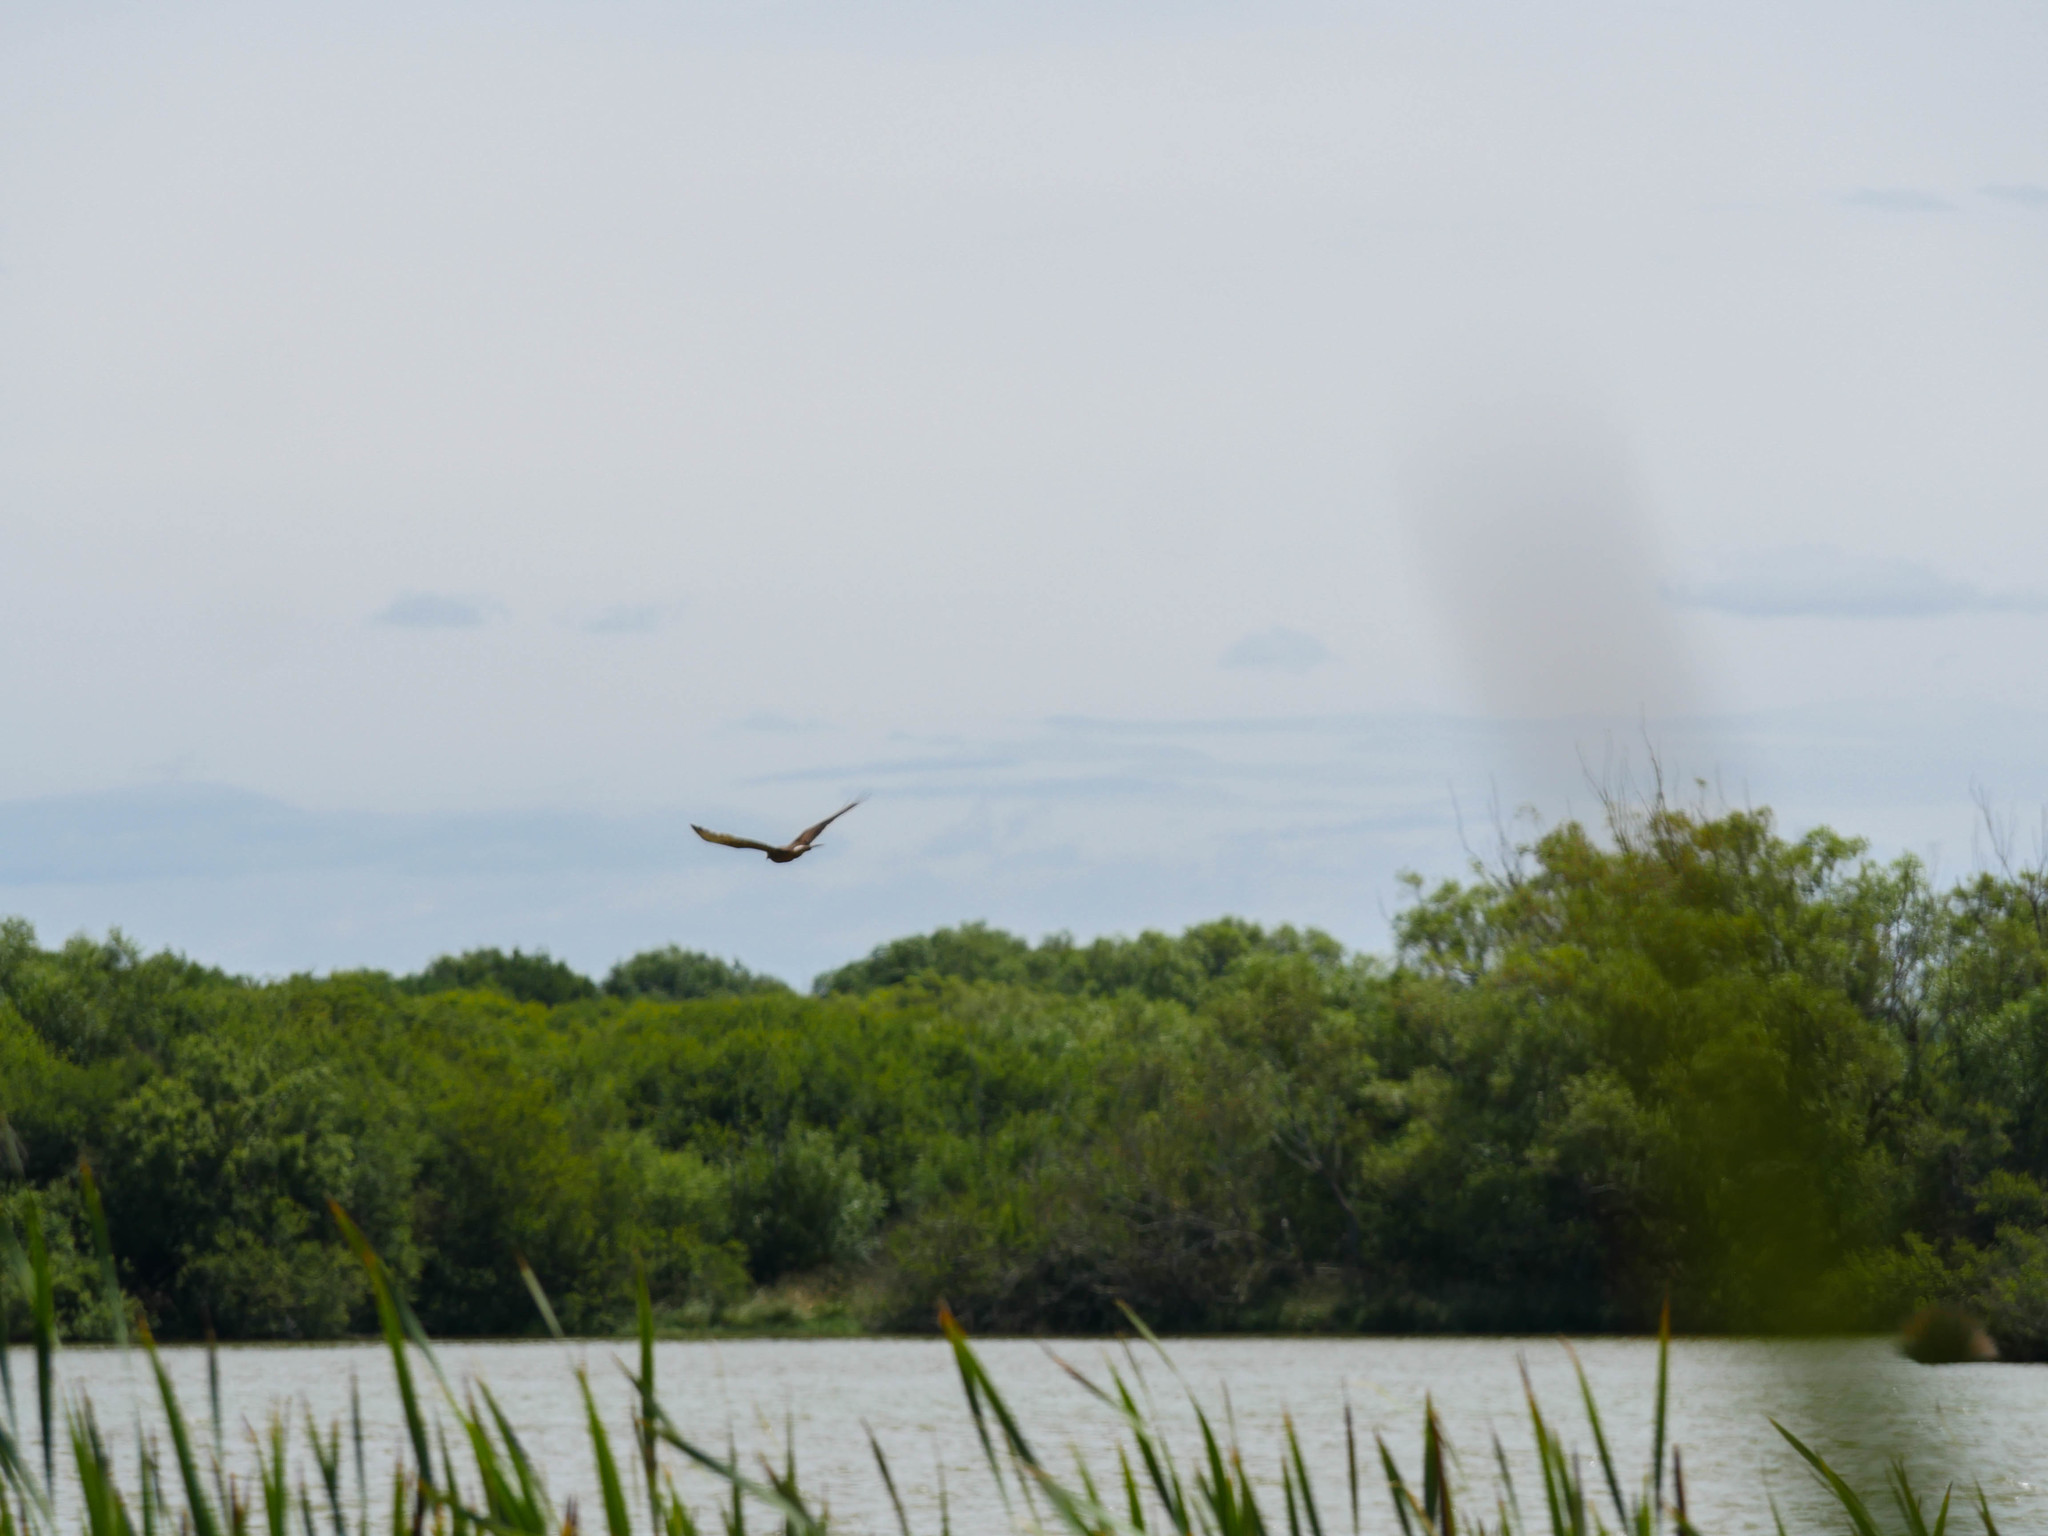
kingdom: Animalia
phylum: Chordata
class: Aves
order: Accipitriformes
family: Accipitridae
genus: Circus
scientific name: Circus approximans
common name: Swamp harrier
